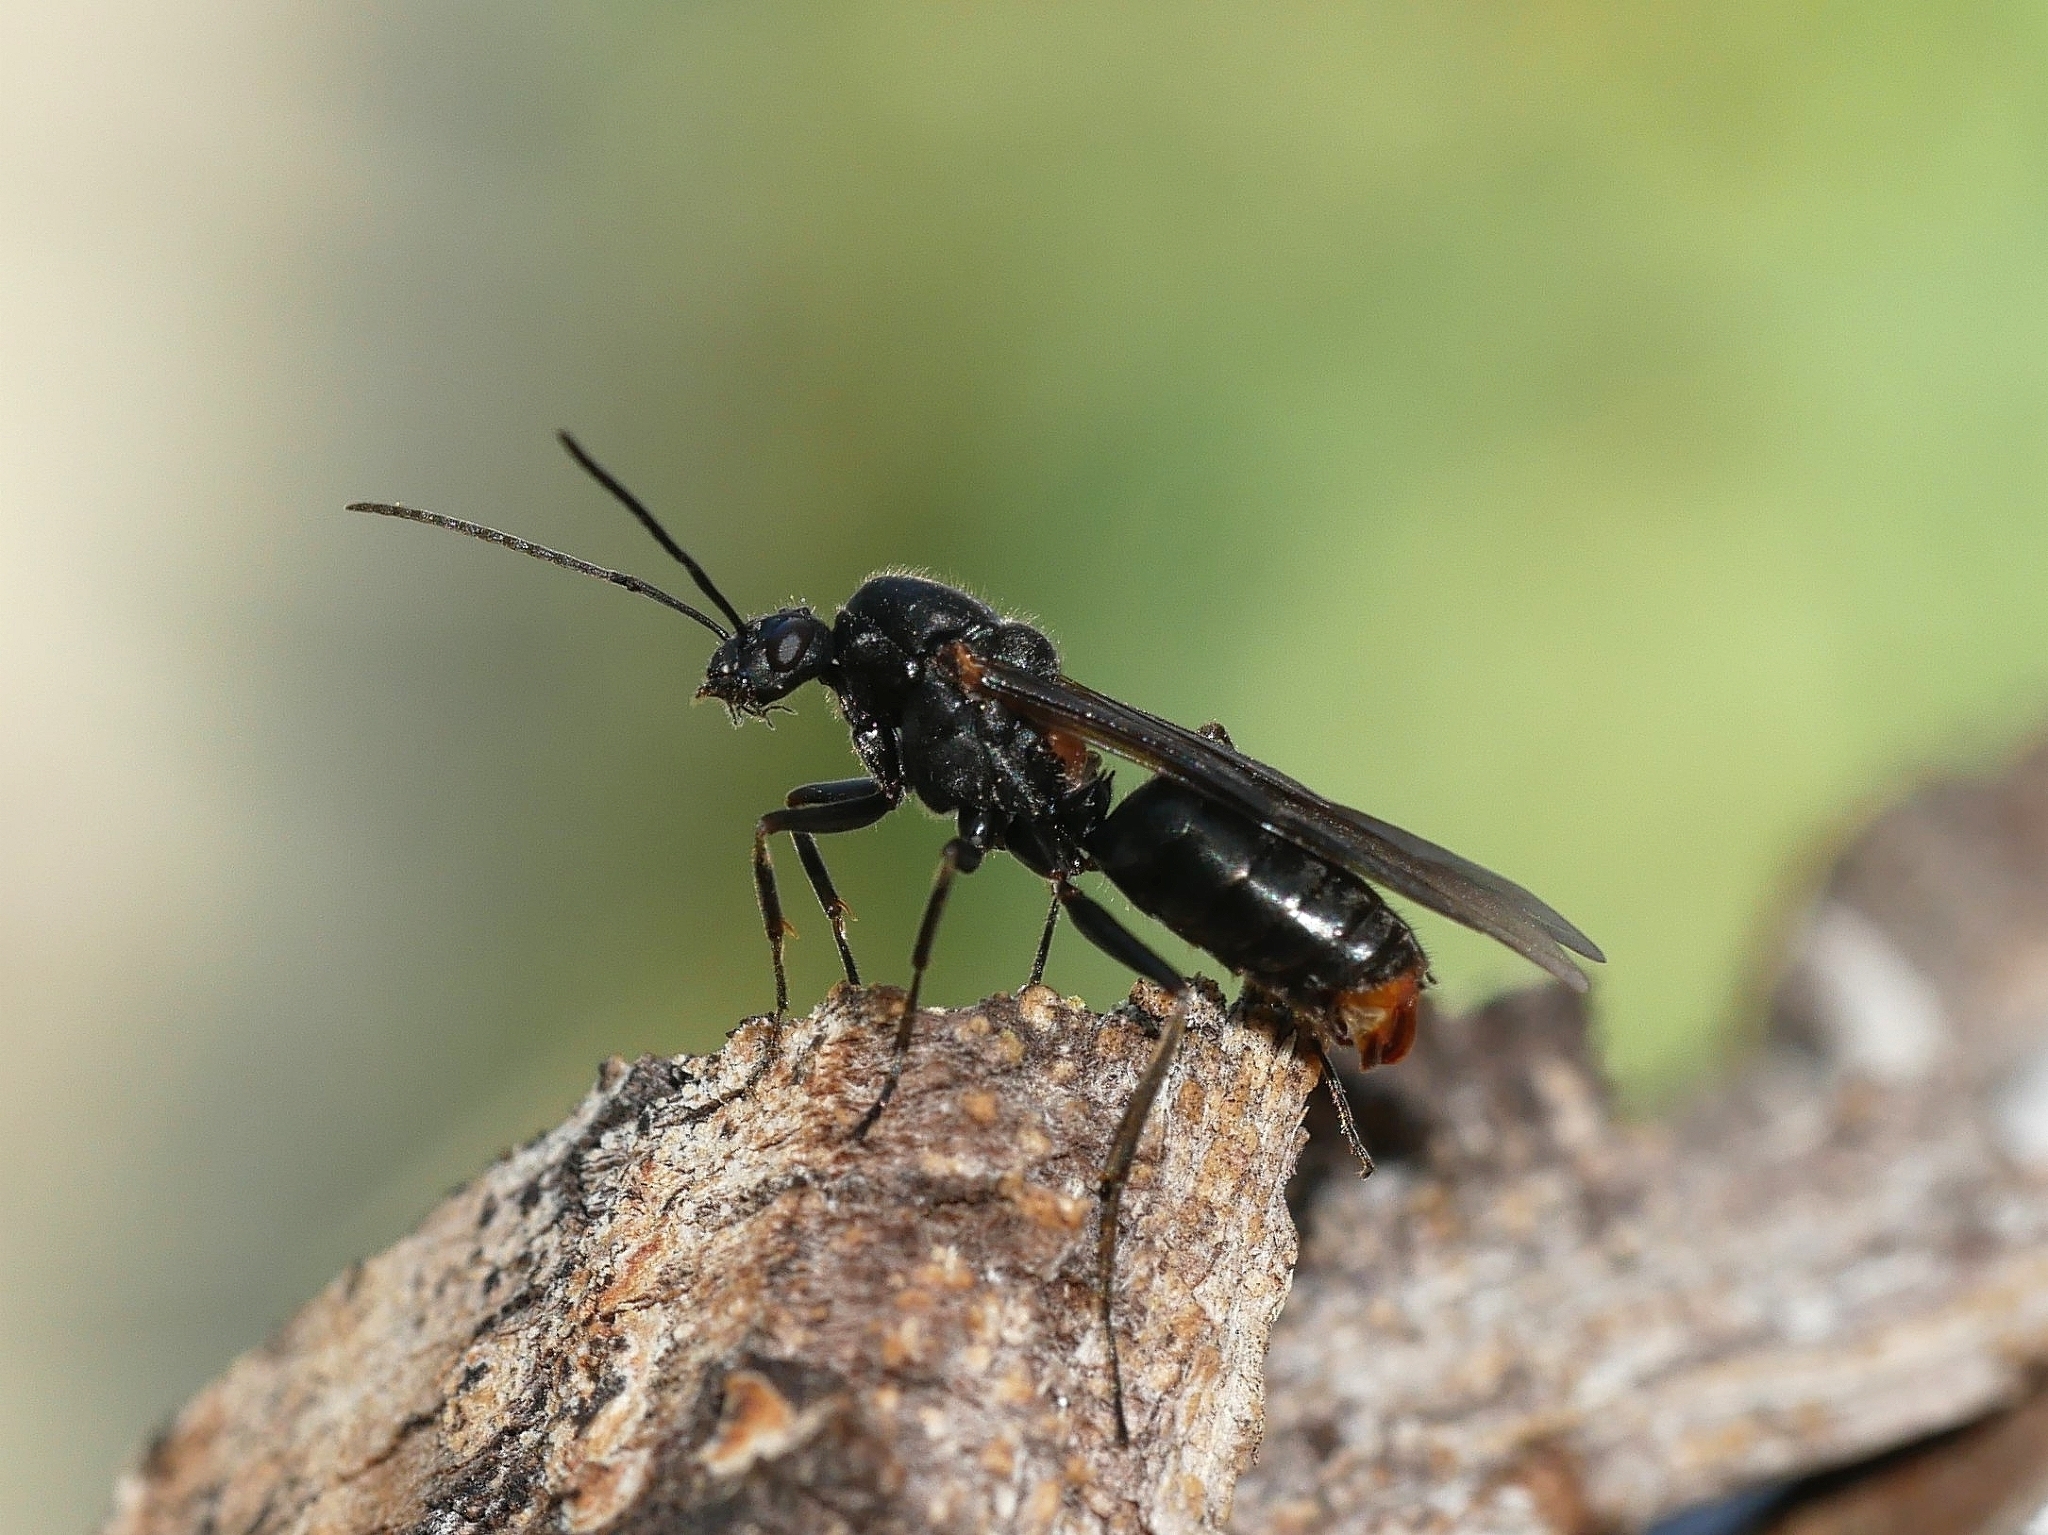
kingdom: Animalia
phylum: Arthropoda
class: Insecta
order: Hymenoptera
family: Formicidae
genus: Formica
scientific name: Formica obscuripes
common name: Western thatching ant
